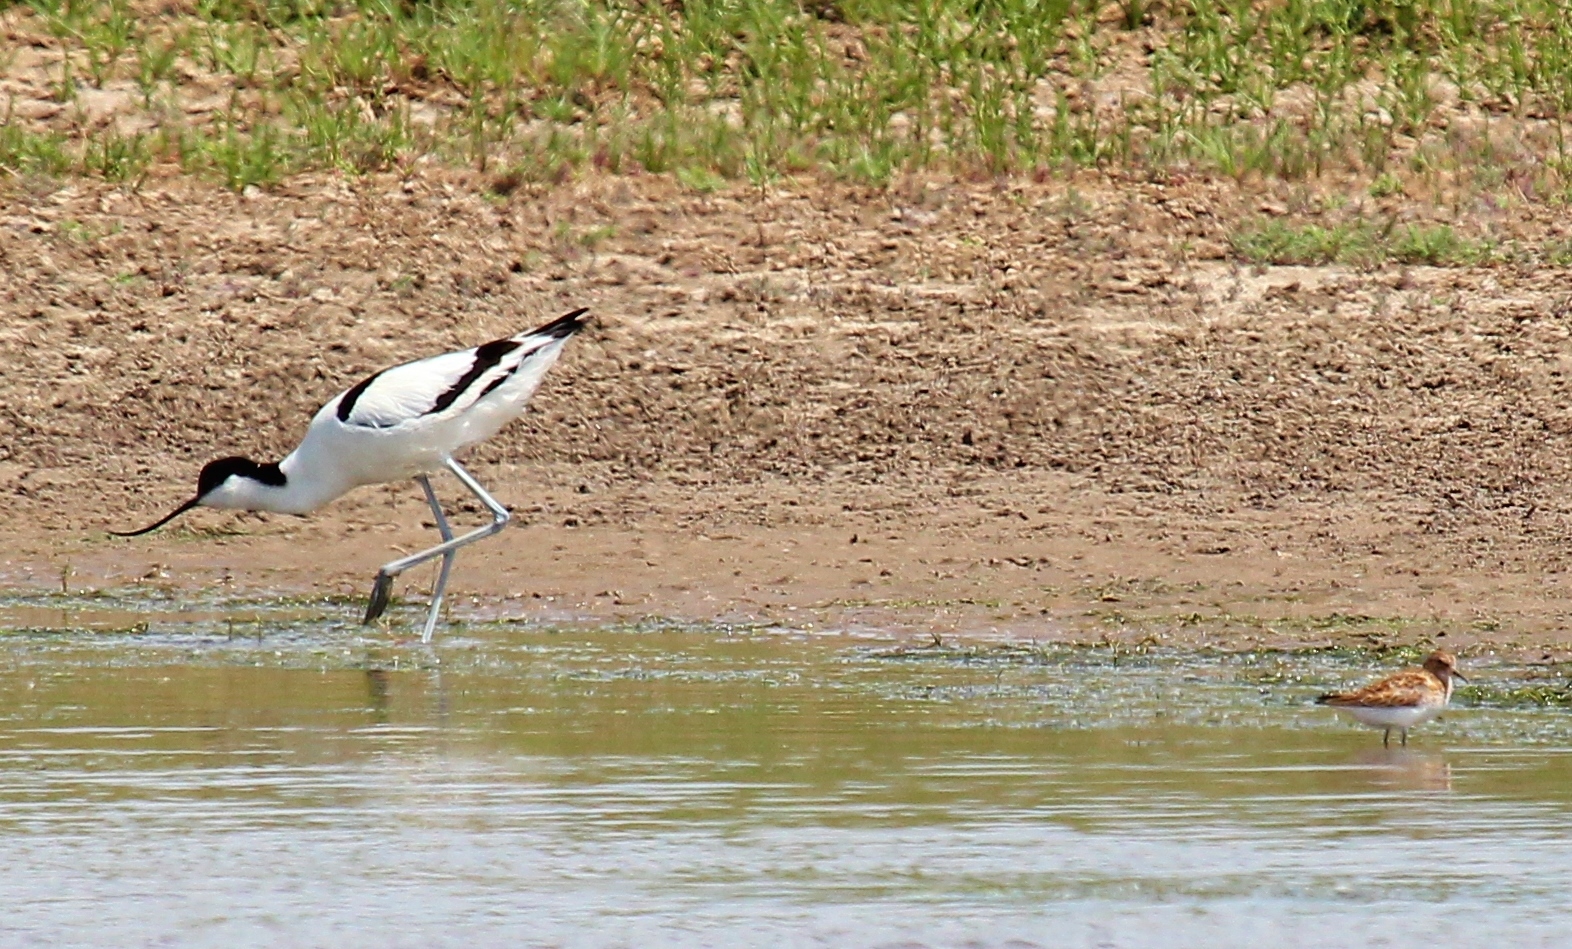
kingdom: Animalia
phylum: Chordata
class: Aves
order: Charadriiformes
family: Recurvirostridae
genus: Recurvirostra
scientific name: Recurvirostra avosetta
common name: Pied avocet
